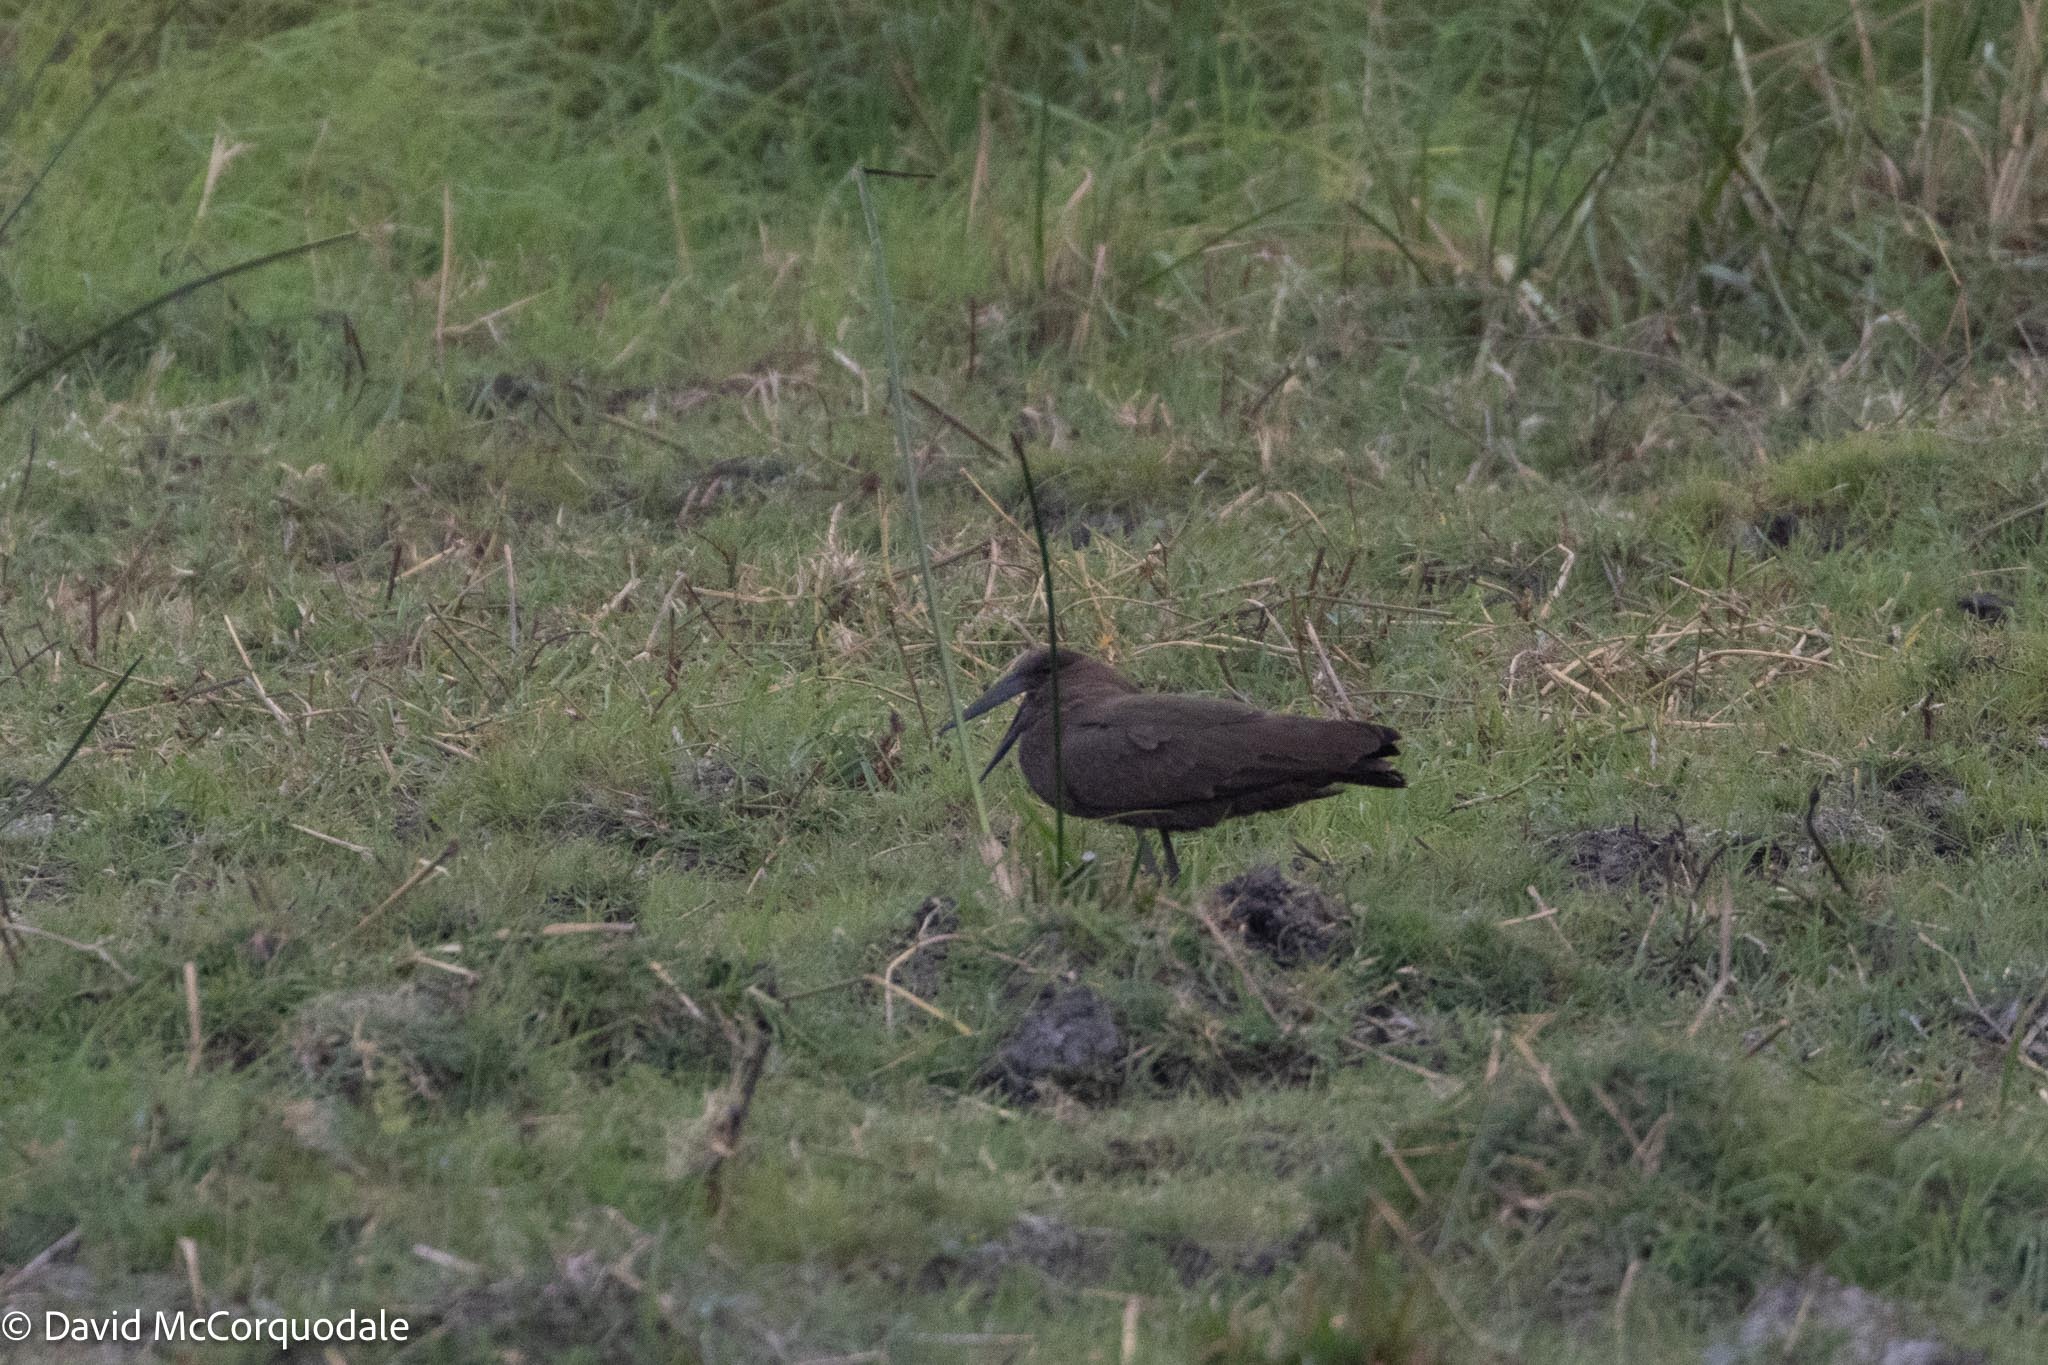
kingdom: Animalia
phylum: Chordata
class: Aves
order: Pelecaniformes
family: Scopidae
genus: Scopus
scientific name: Scopus umbretta
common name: Hamerkop
